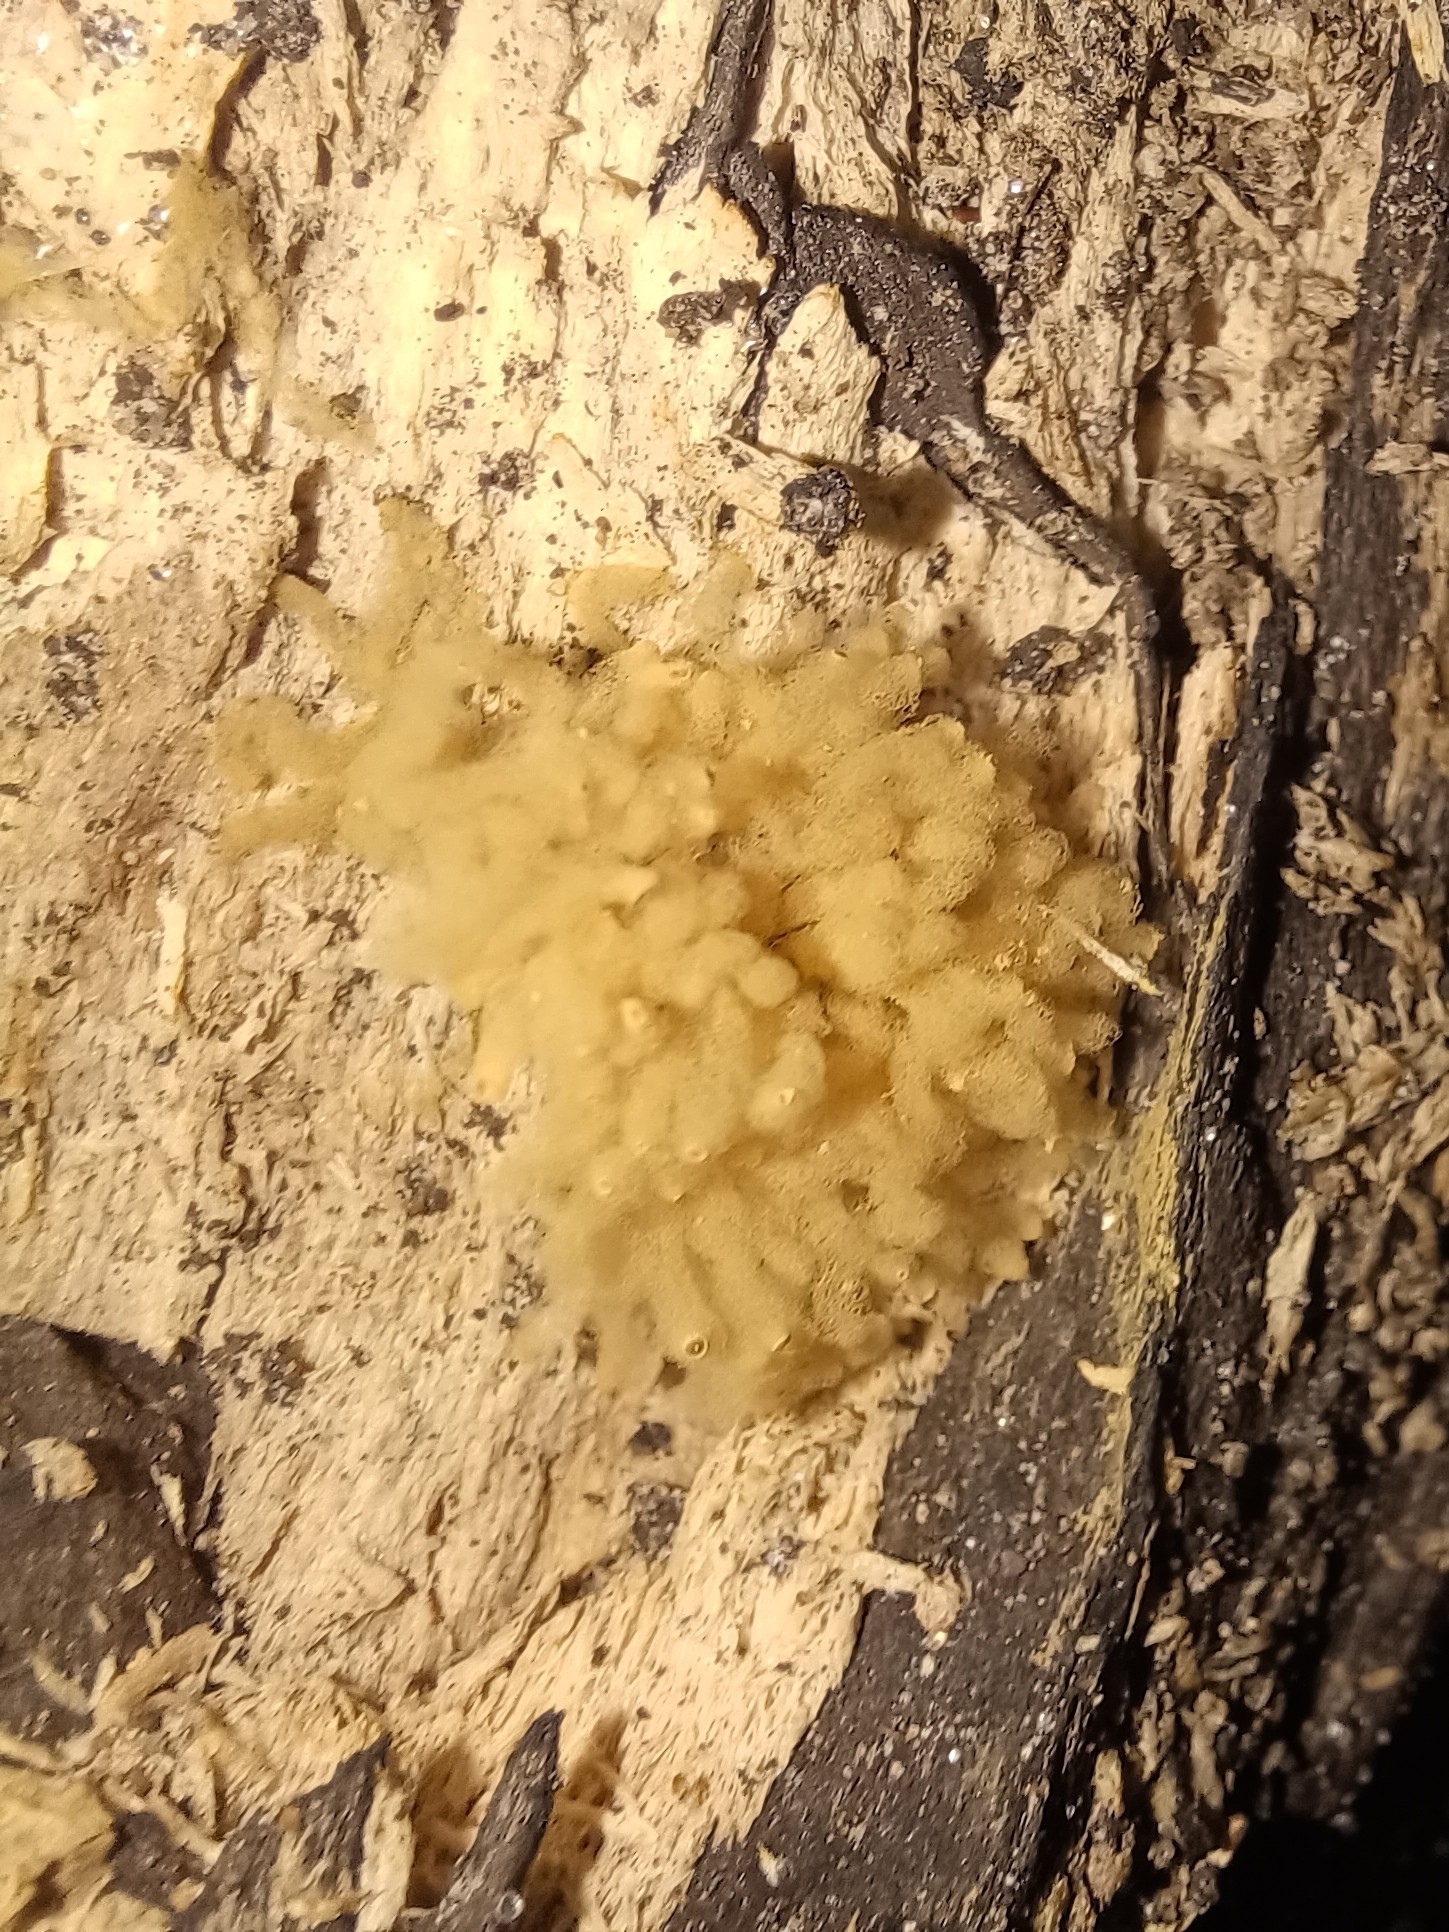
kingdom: Protozoa
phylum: Mycetozoa
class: Myxomycetes
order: Trichiales
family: Arcyriaceae
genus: Arcyria
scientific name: Arcyria obvelata
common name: Yellow carnival candy slime
